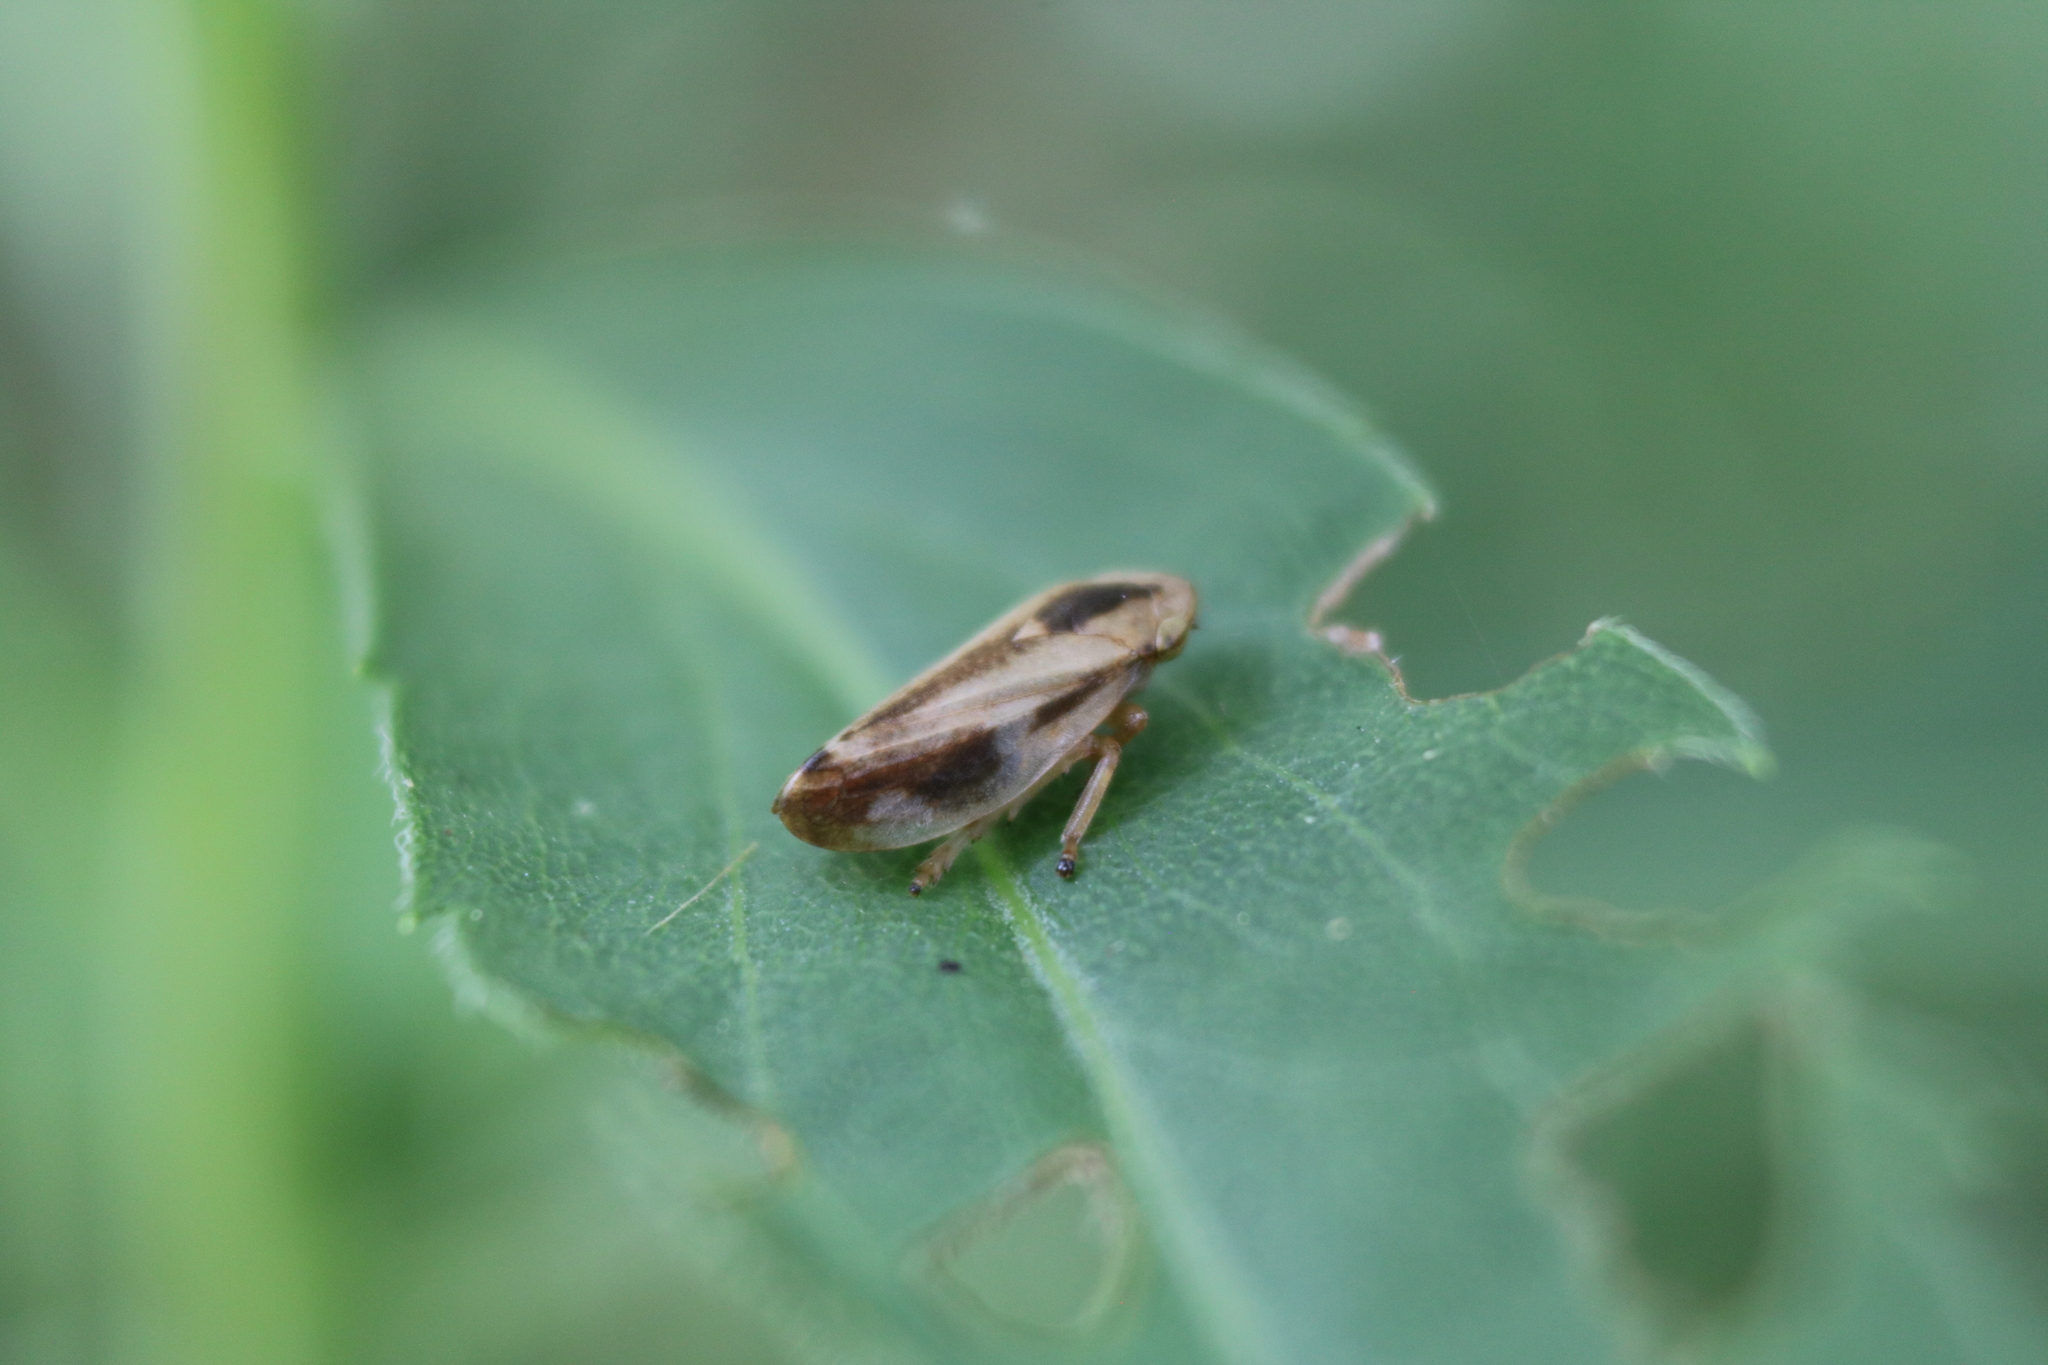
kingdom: Animalia
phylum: Arthropoda
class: Insecta
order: Hemiptera
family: Aphrophoridae
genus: Philaenus
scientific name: Philaenus spumarius
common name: Meadow spittlebug
